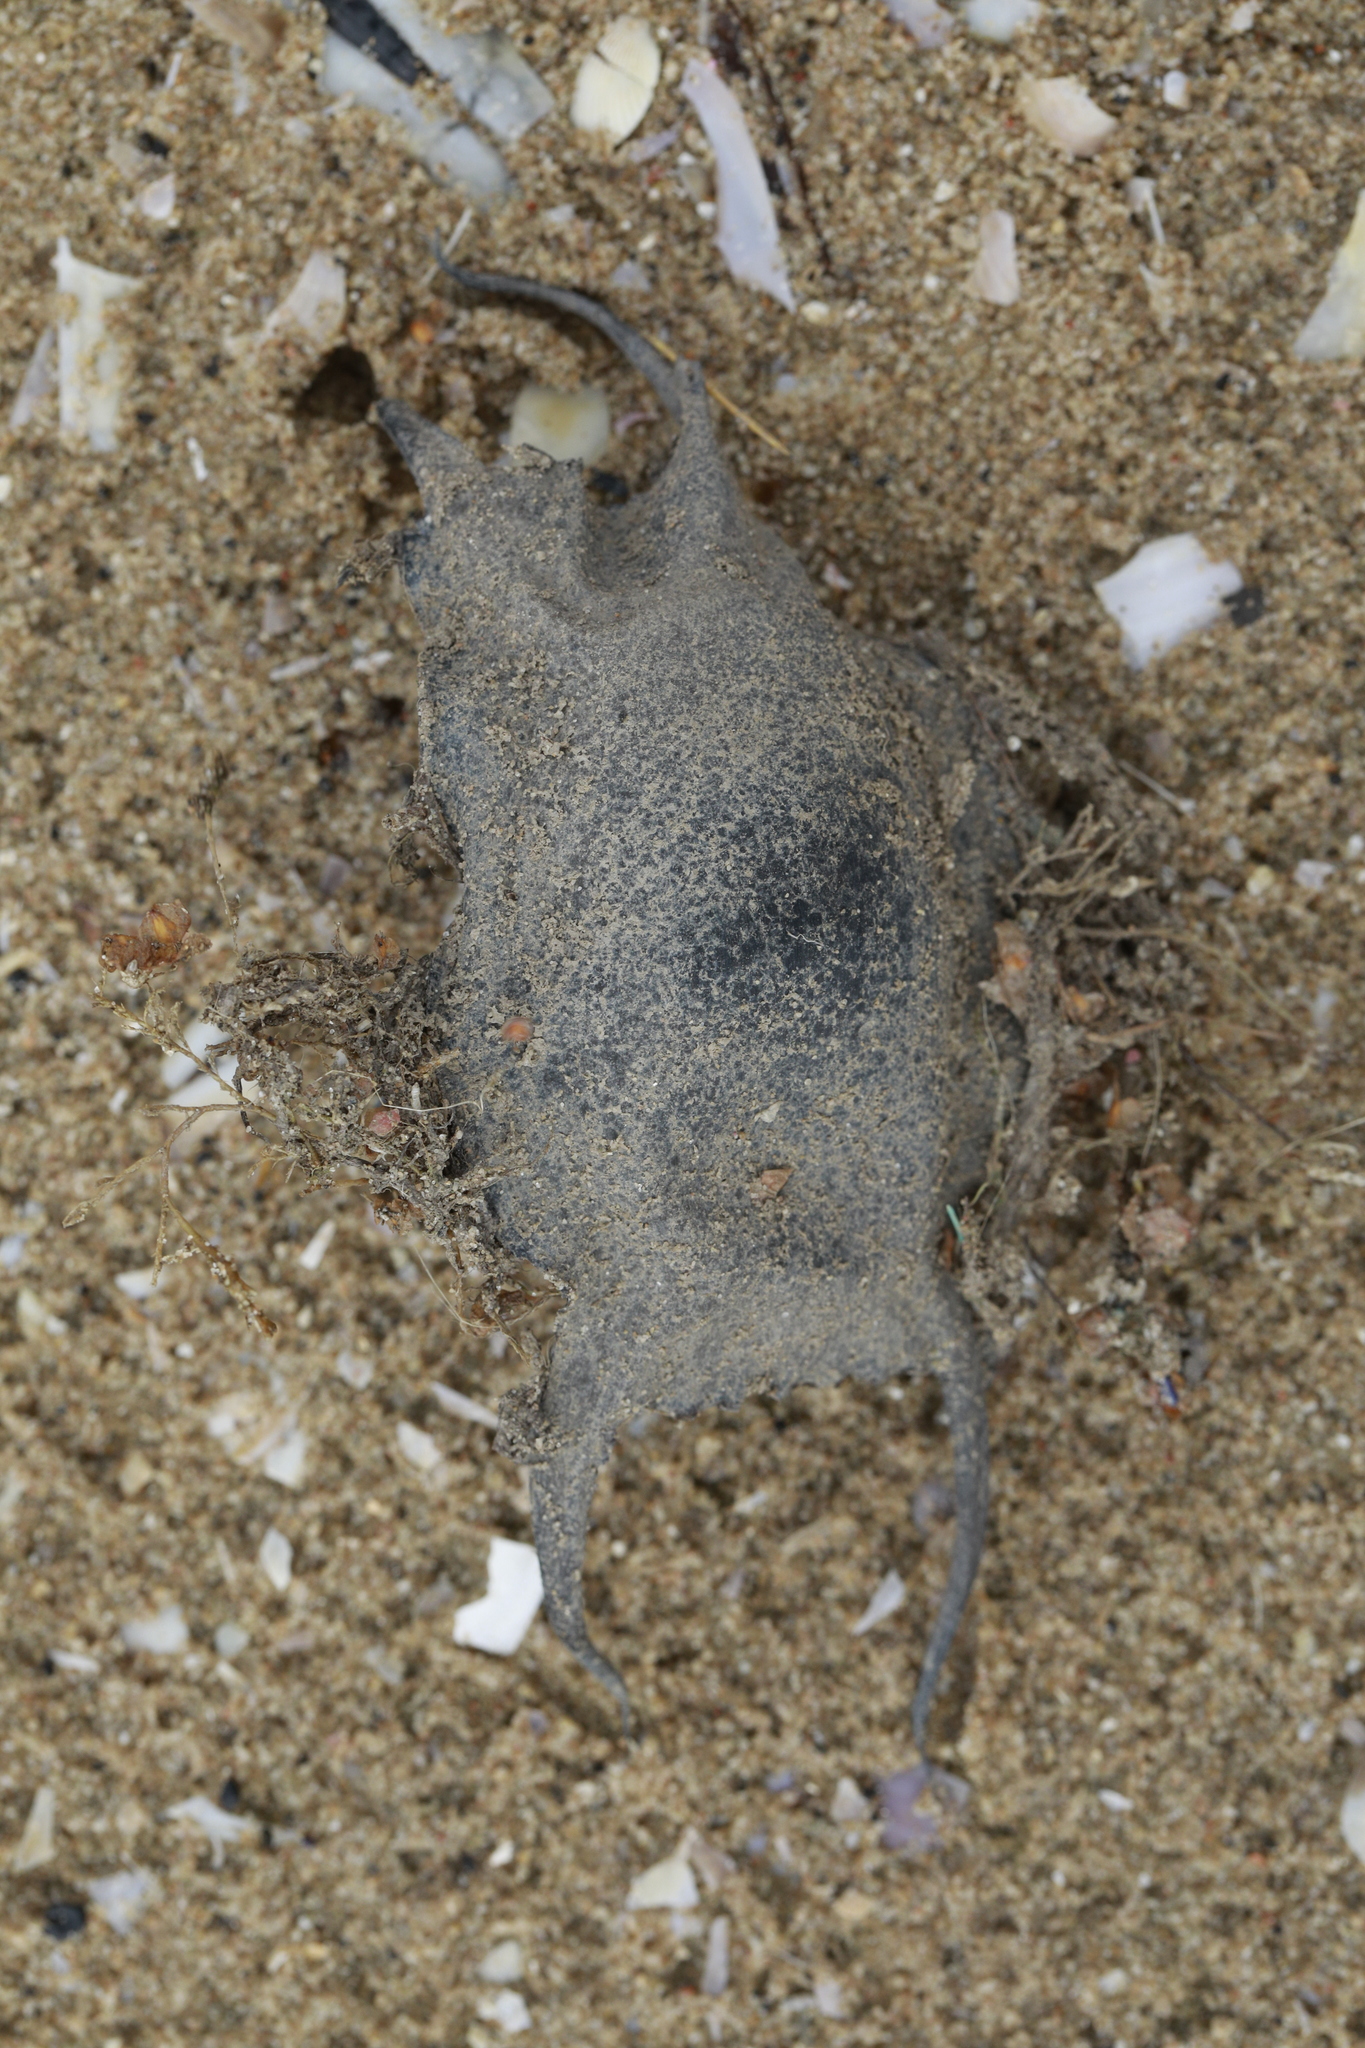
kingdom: Animalia
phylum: Chordata
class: Elasmobranchii
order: Rajiformes
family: Rajidae
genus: Raja
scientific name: Raja undulata
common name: Undulate ray
